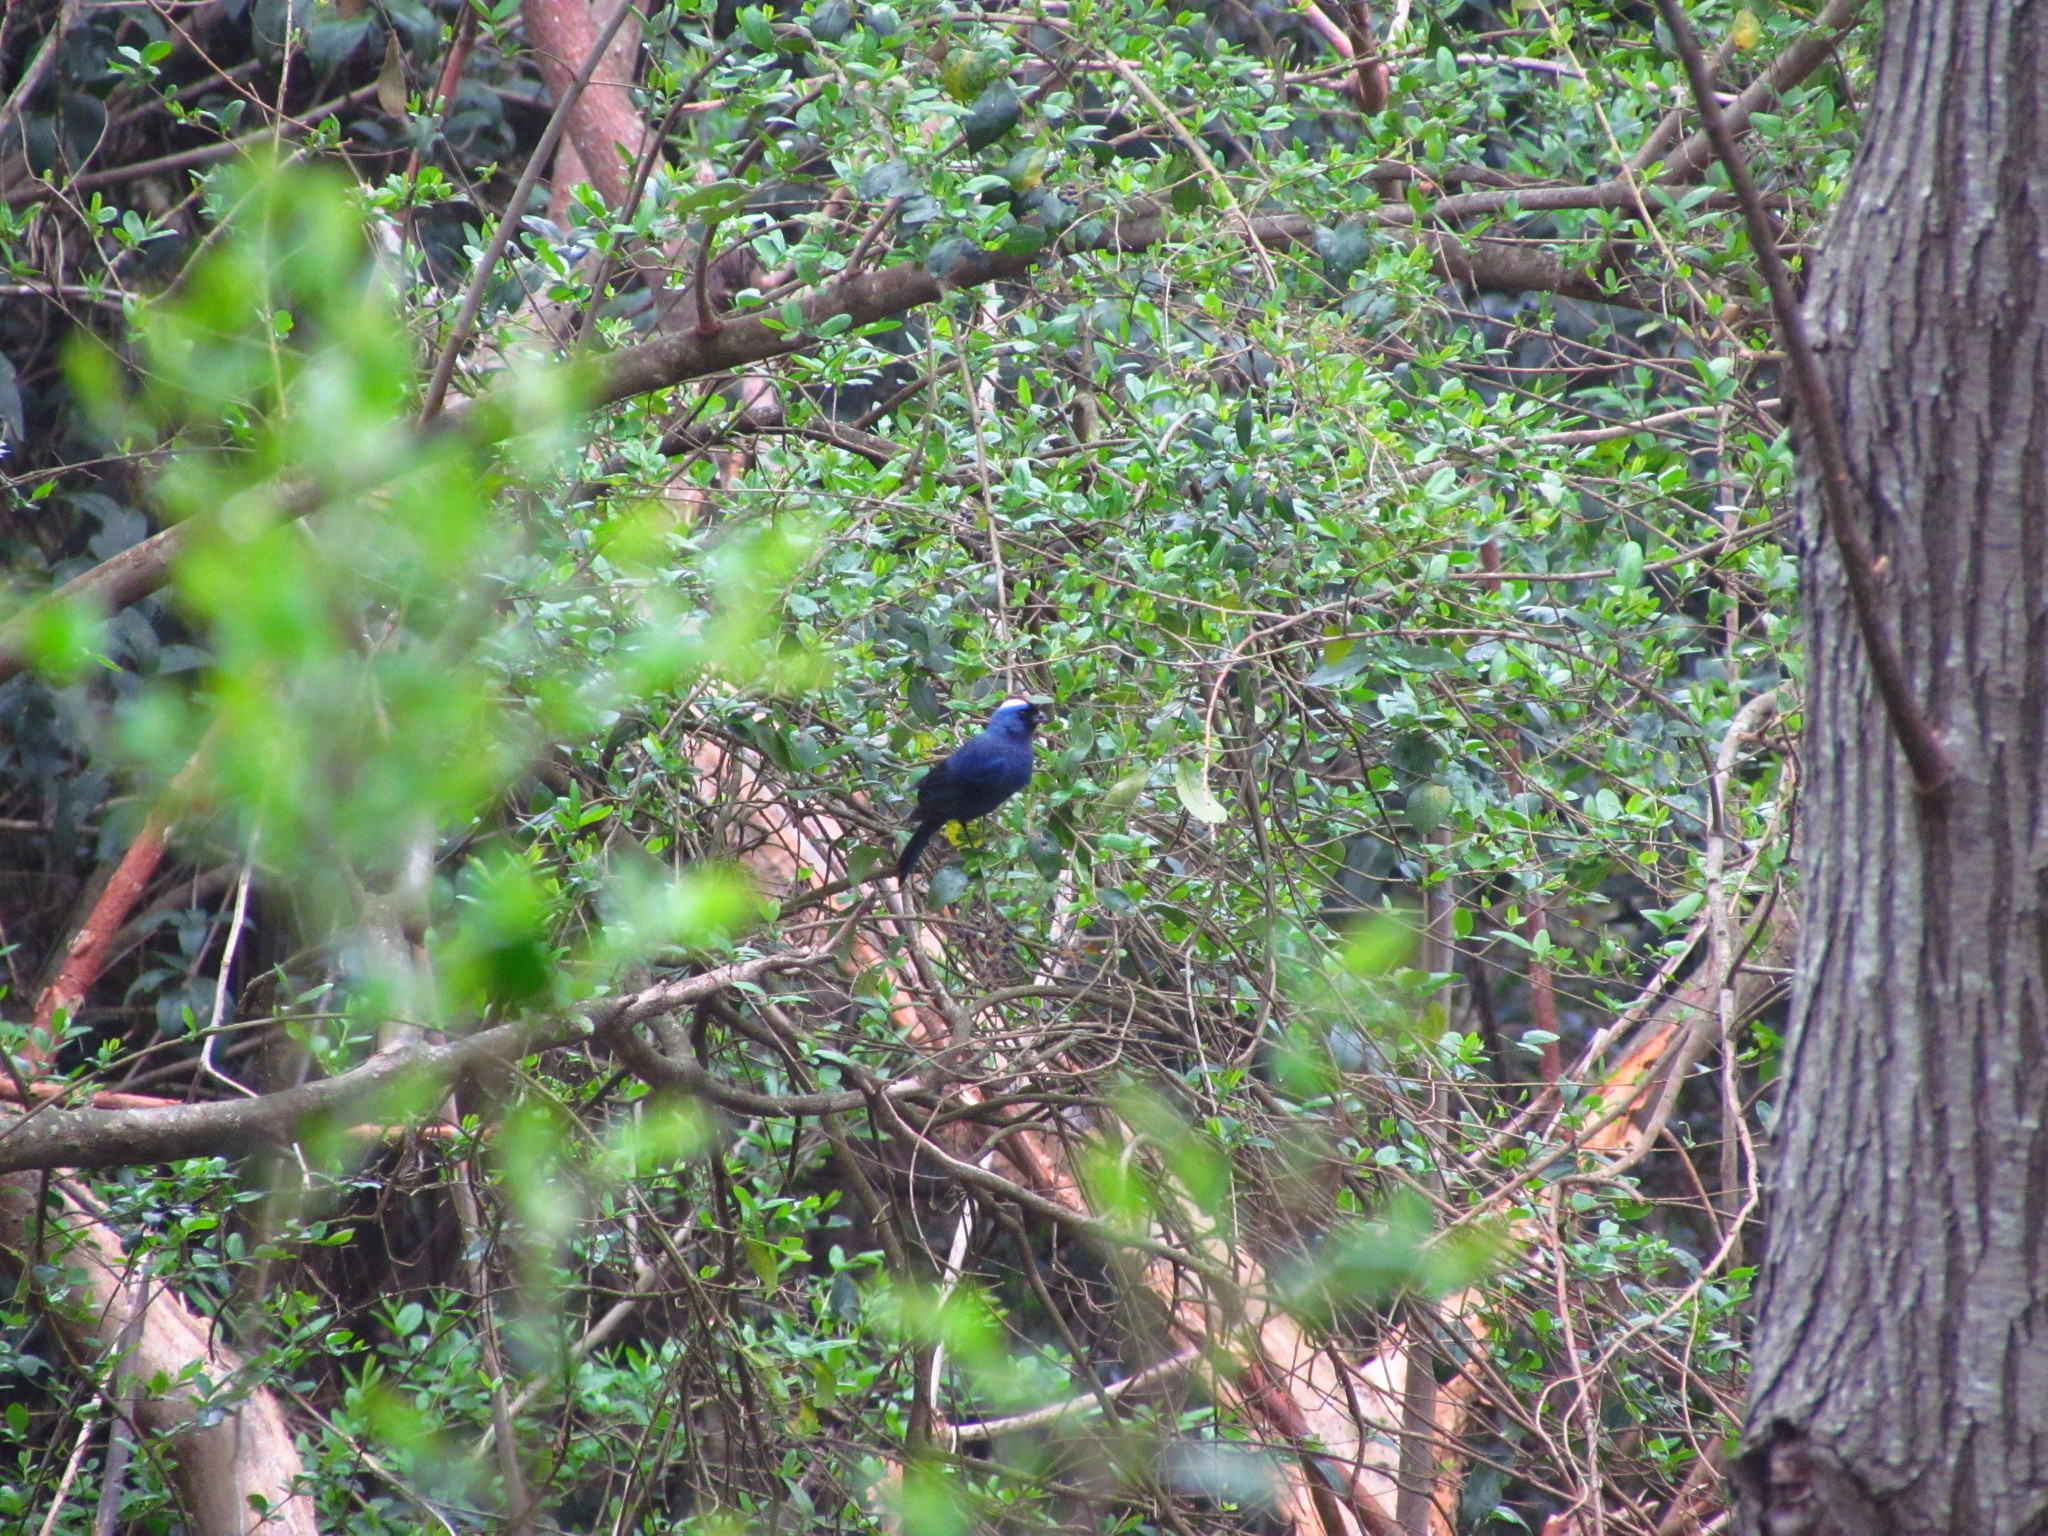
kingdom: Animalia
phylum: Chordata
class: Aves
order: Passeriformes
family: Thraupidae
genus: Stephanophorus
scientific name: Stephanophorus diadematus
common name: Diademed tanager
